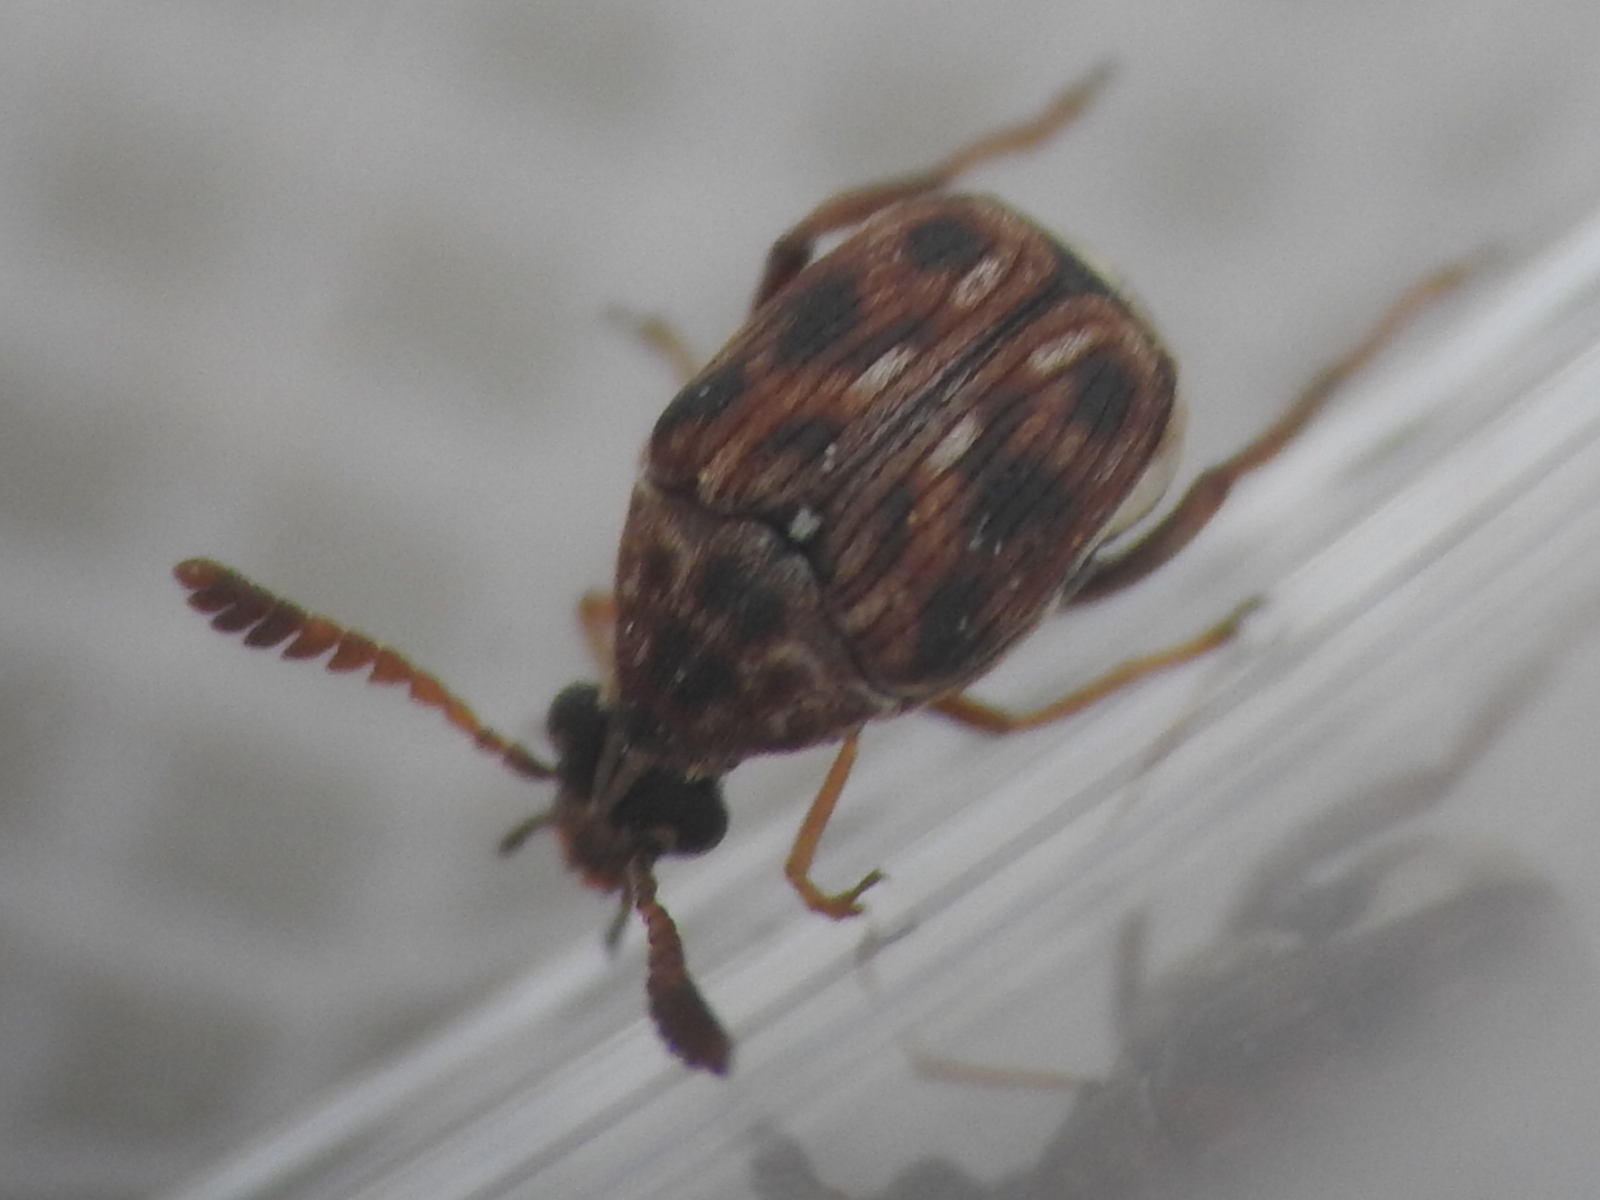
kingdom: Animalia
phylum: Arthropoda
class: Insecta
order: Coleoptera
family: Chrysomelidae
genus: Megacerus
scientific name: Megacerus cubiculus
